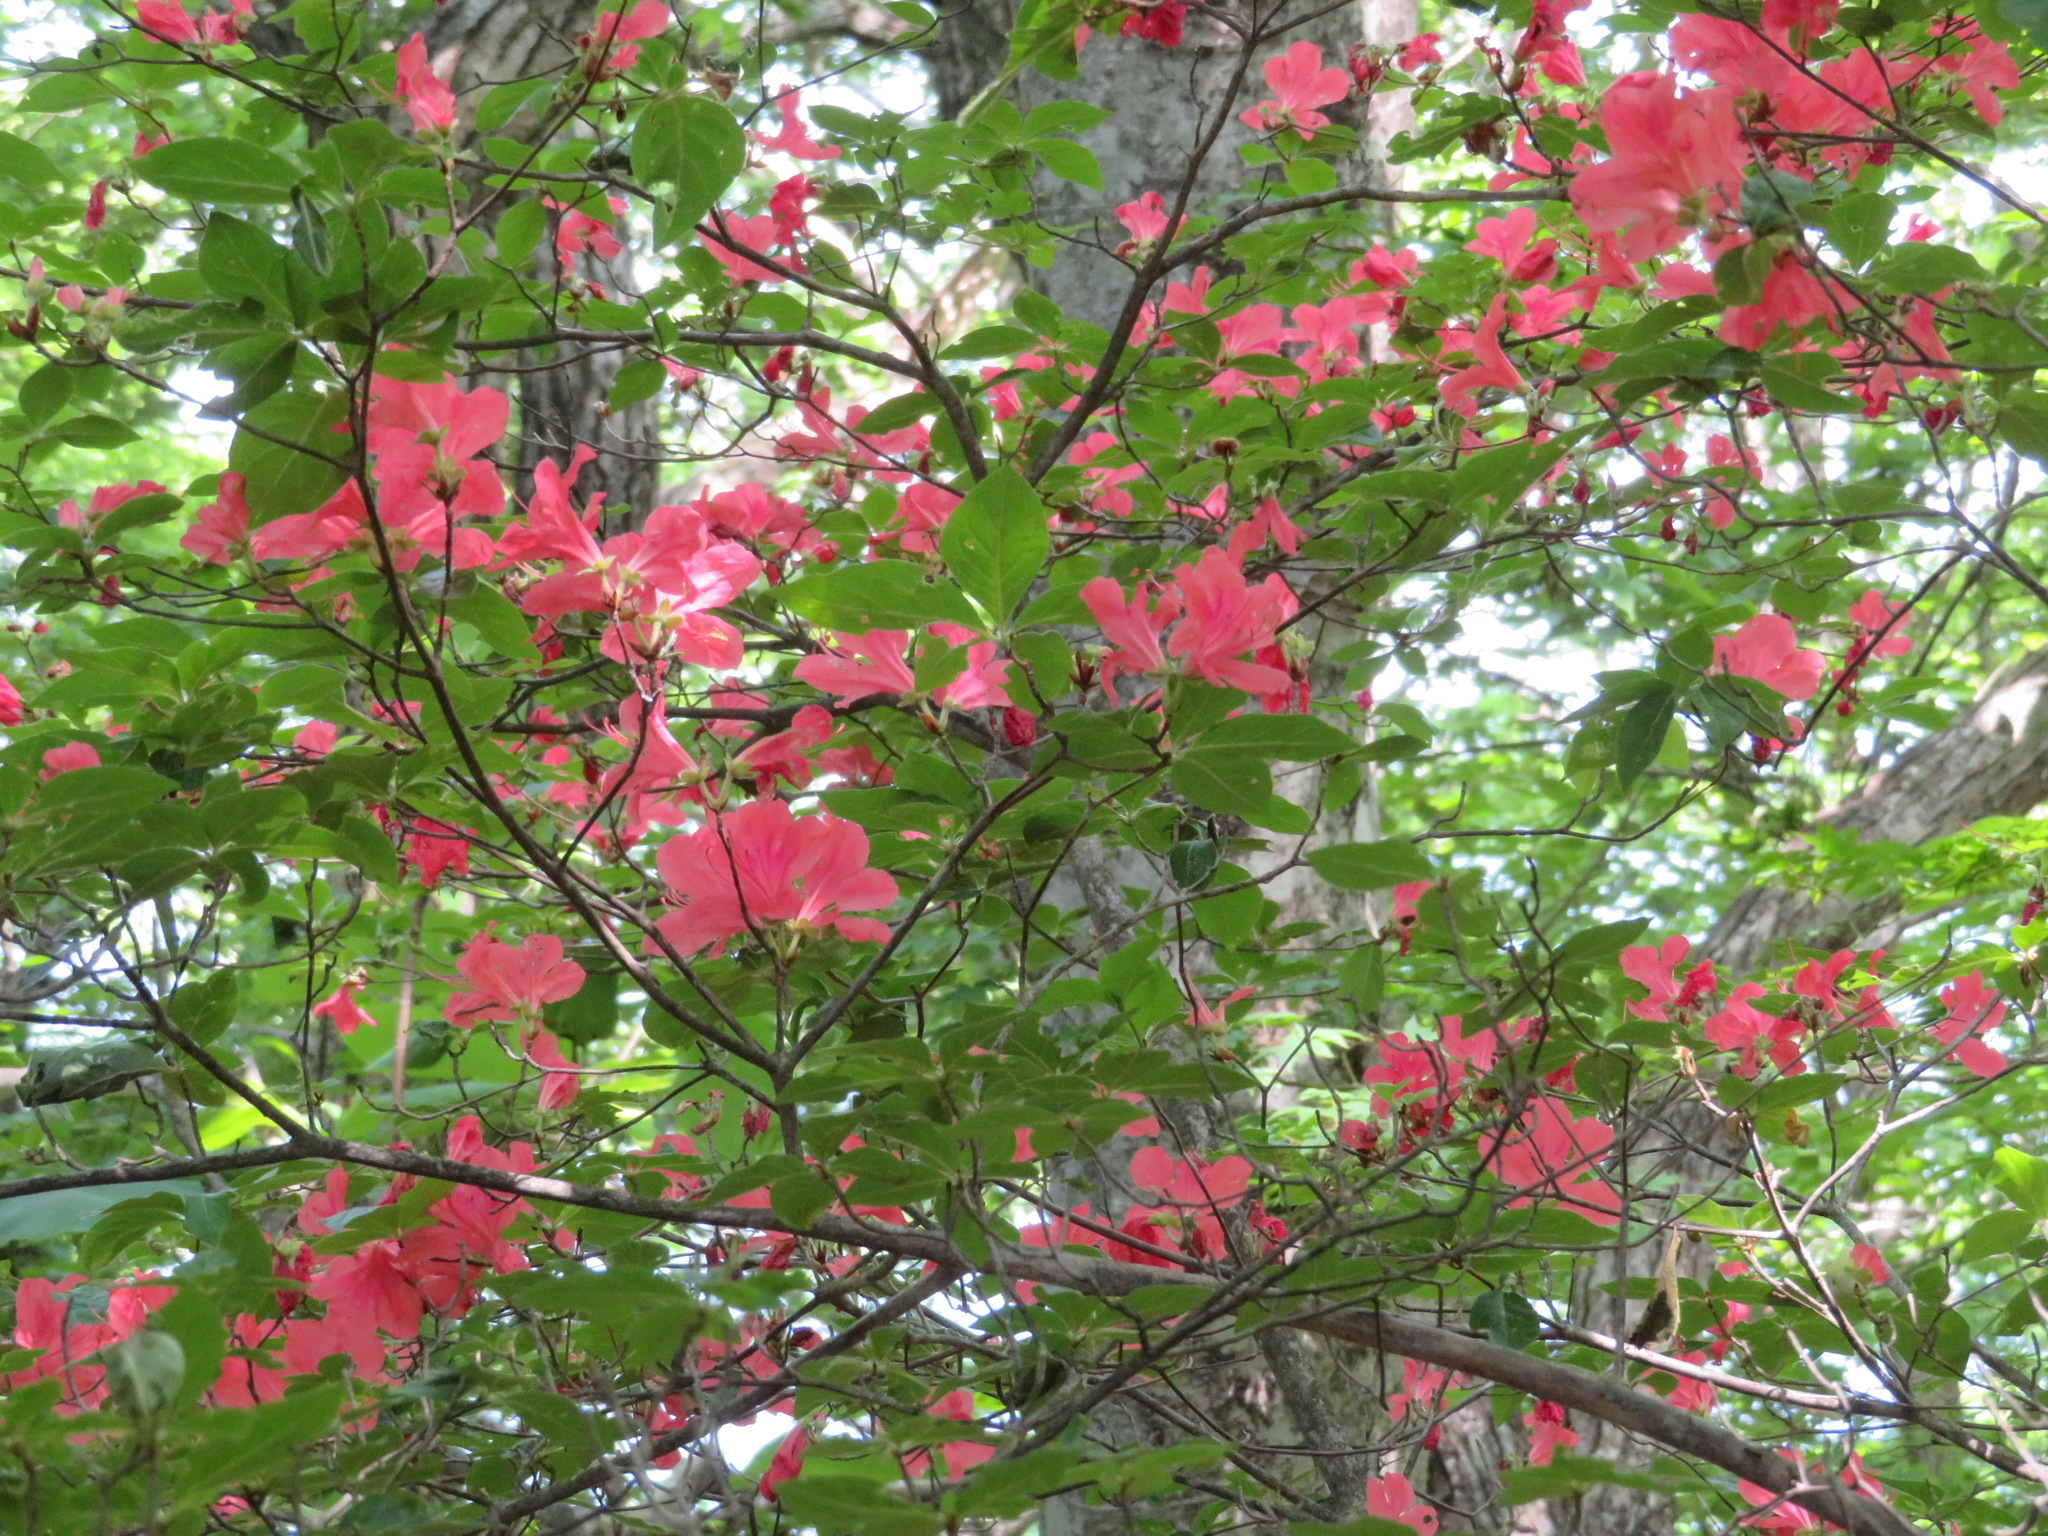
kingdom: Plantae
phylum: Tracheophyta
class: Magnoliopsida
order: Ericales
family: Ericaceae
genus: Rhododendron
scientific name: Rhododendron kaempferi
